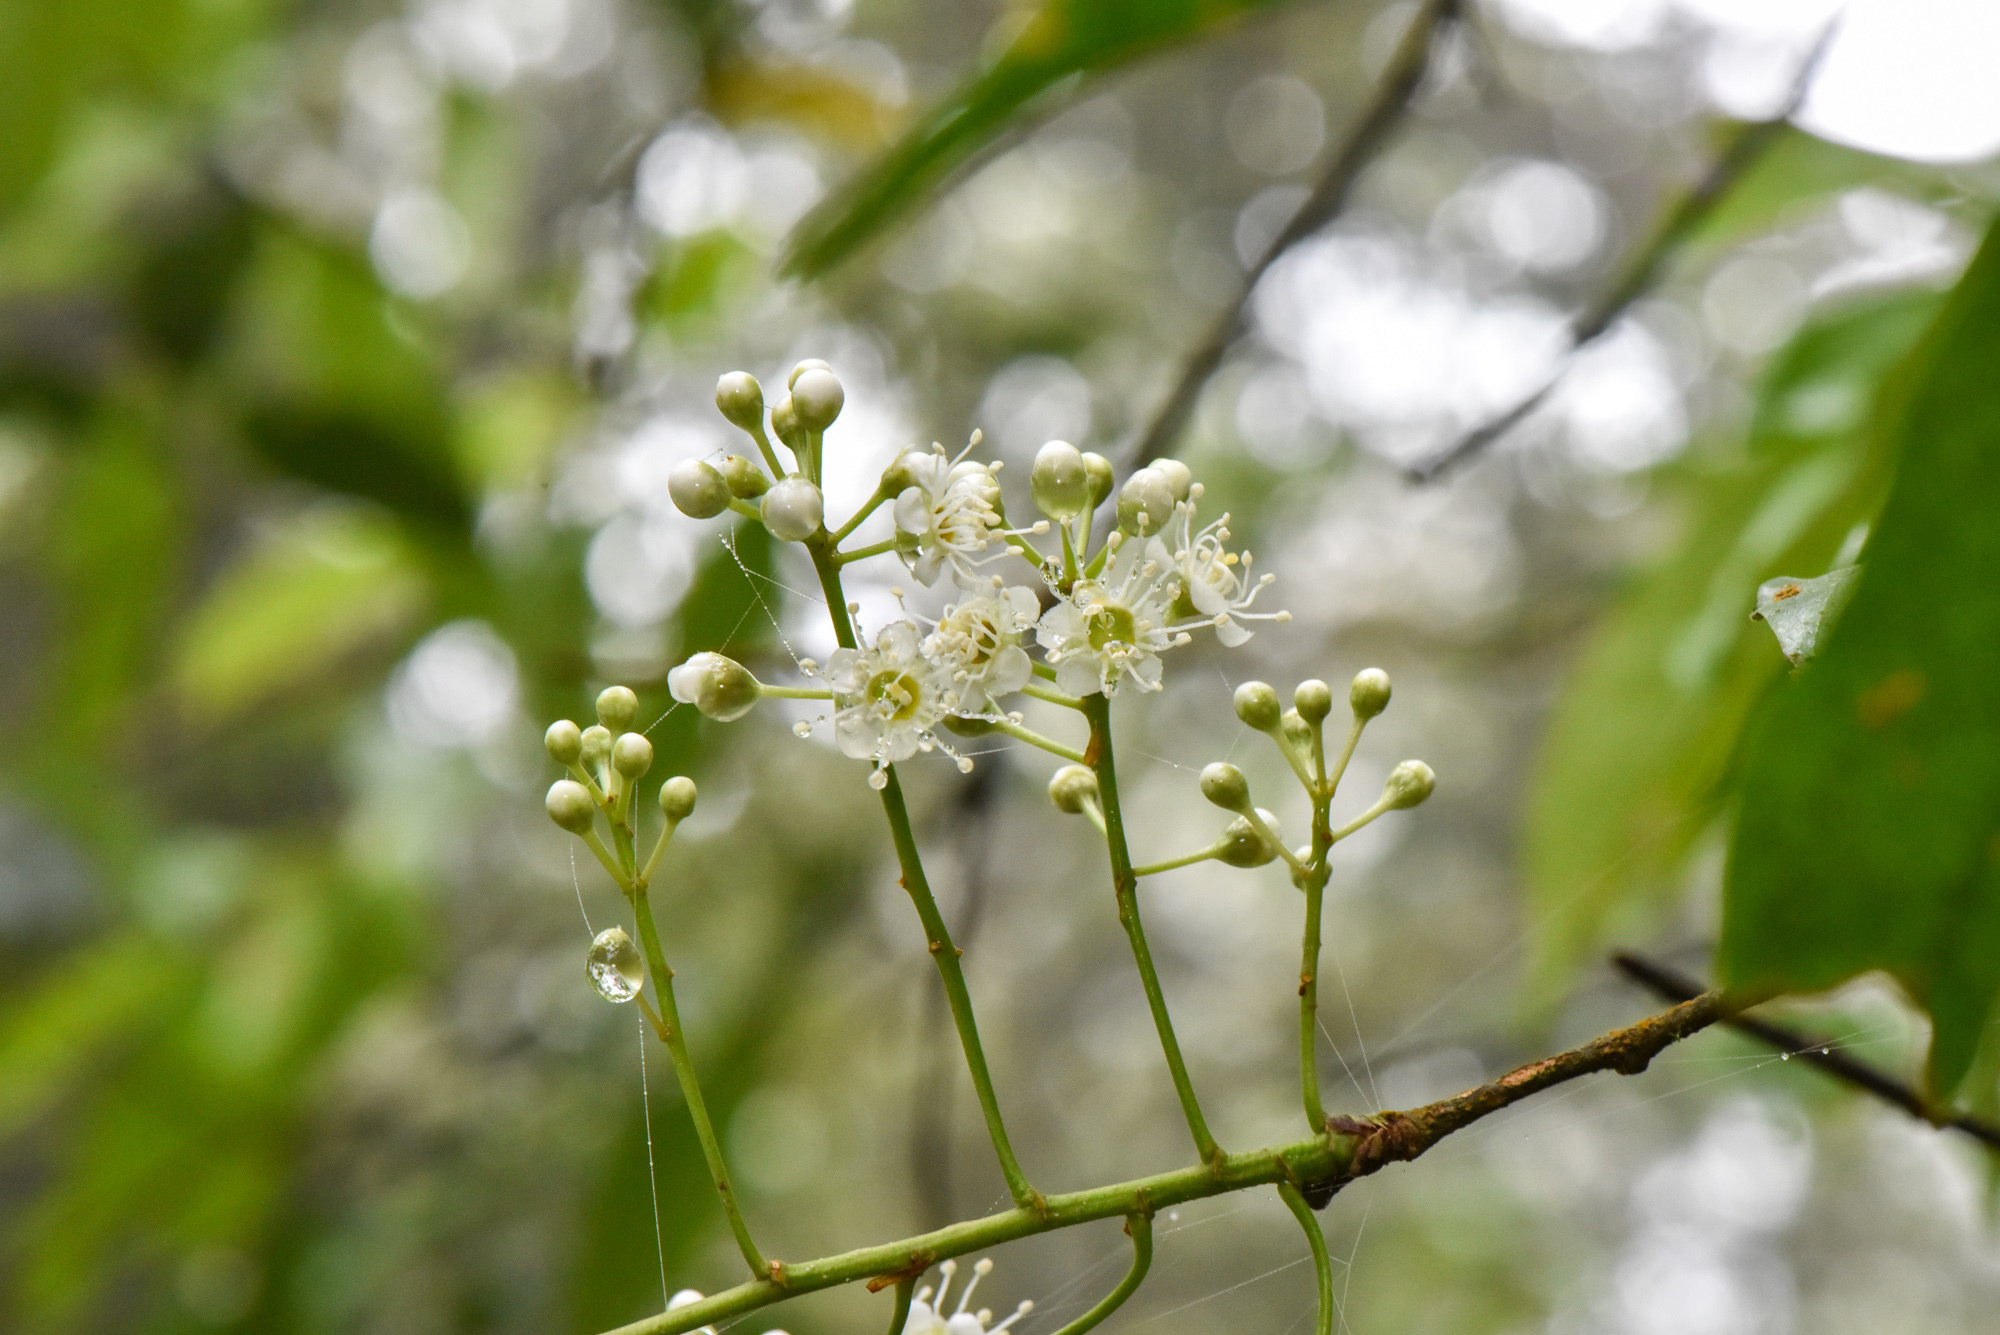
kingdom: Plantae
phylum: Tracheophyta
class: Magnoliopsida
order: Rosales
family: Rosaceae
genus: Prunus
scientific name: Prunus phaeosticta
